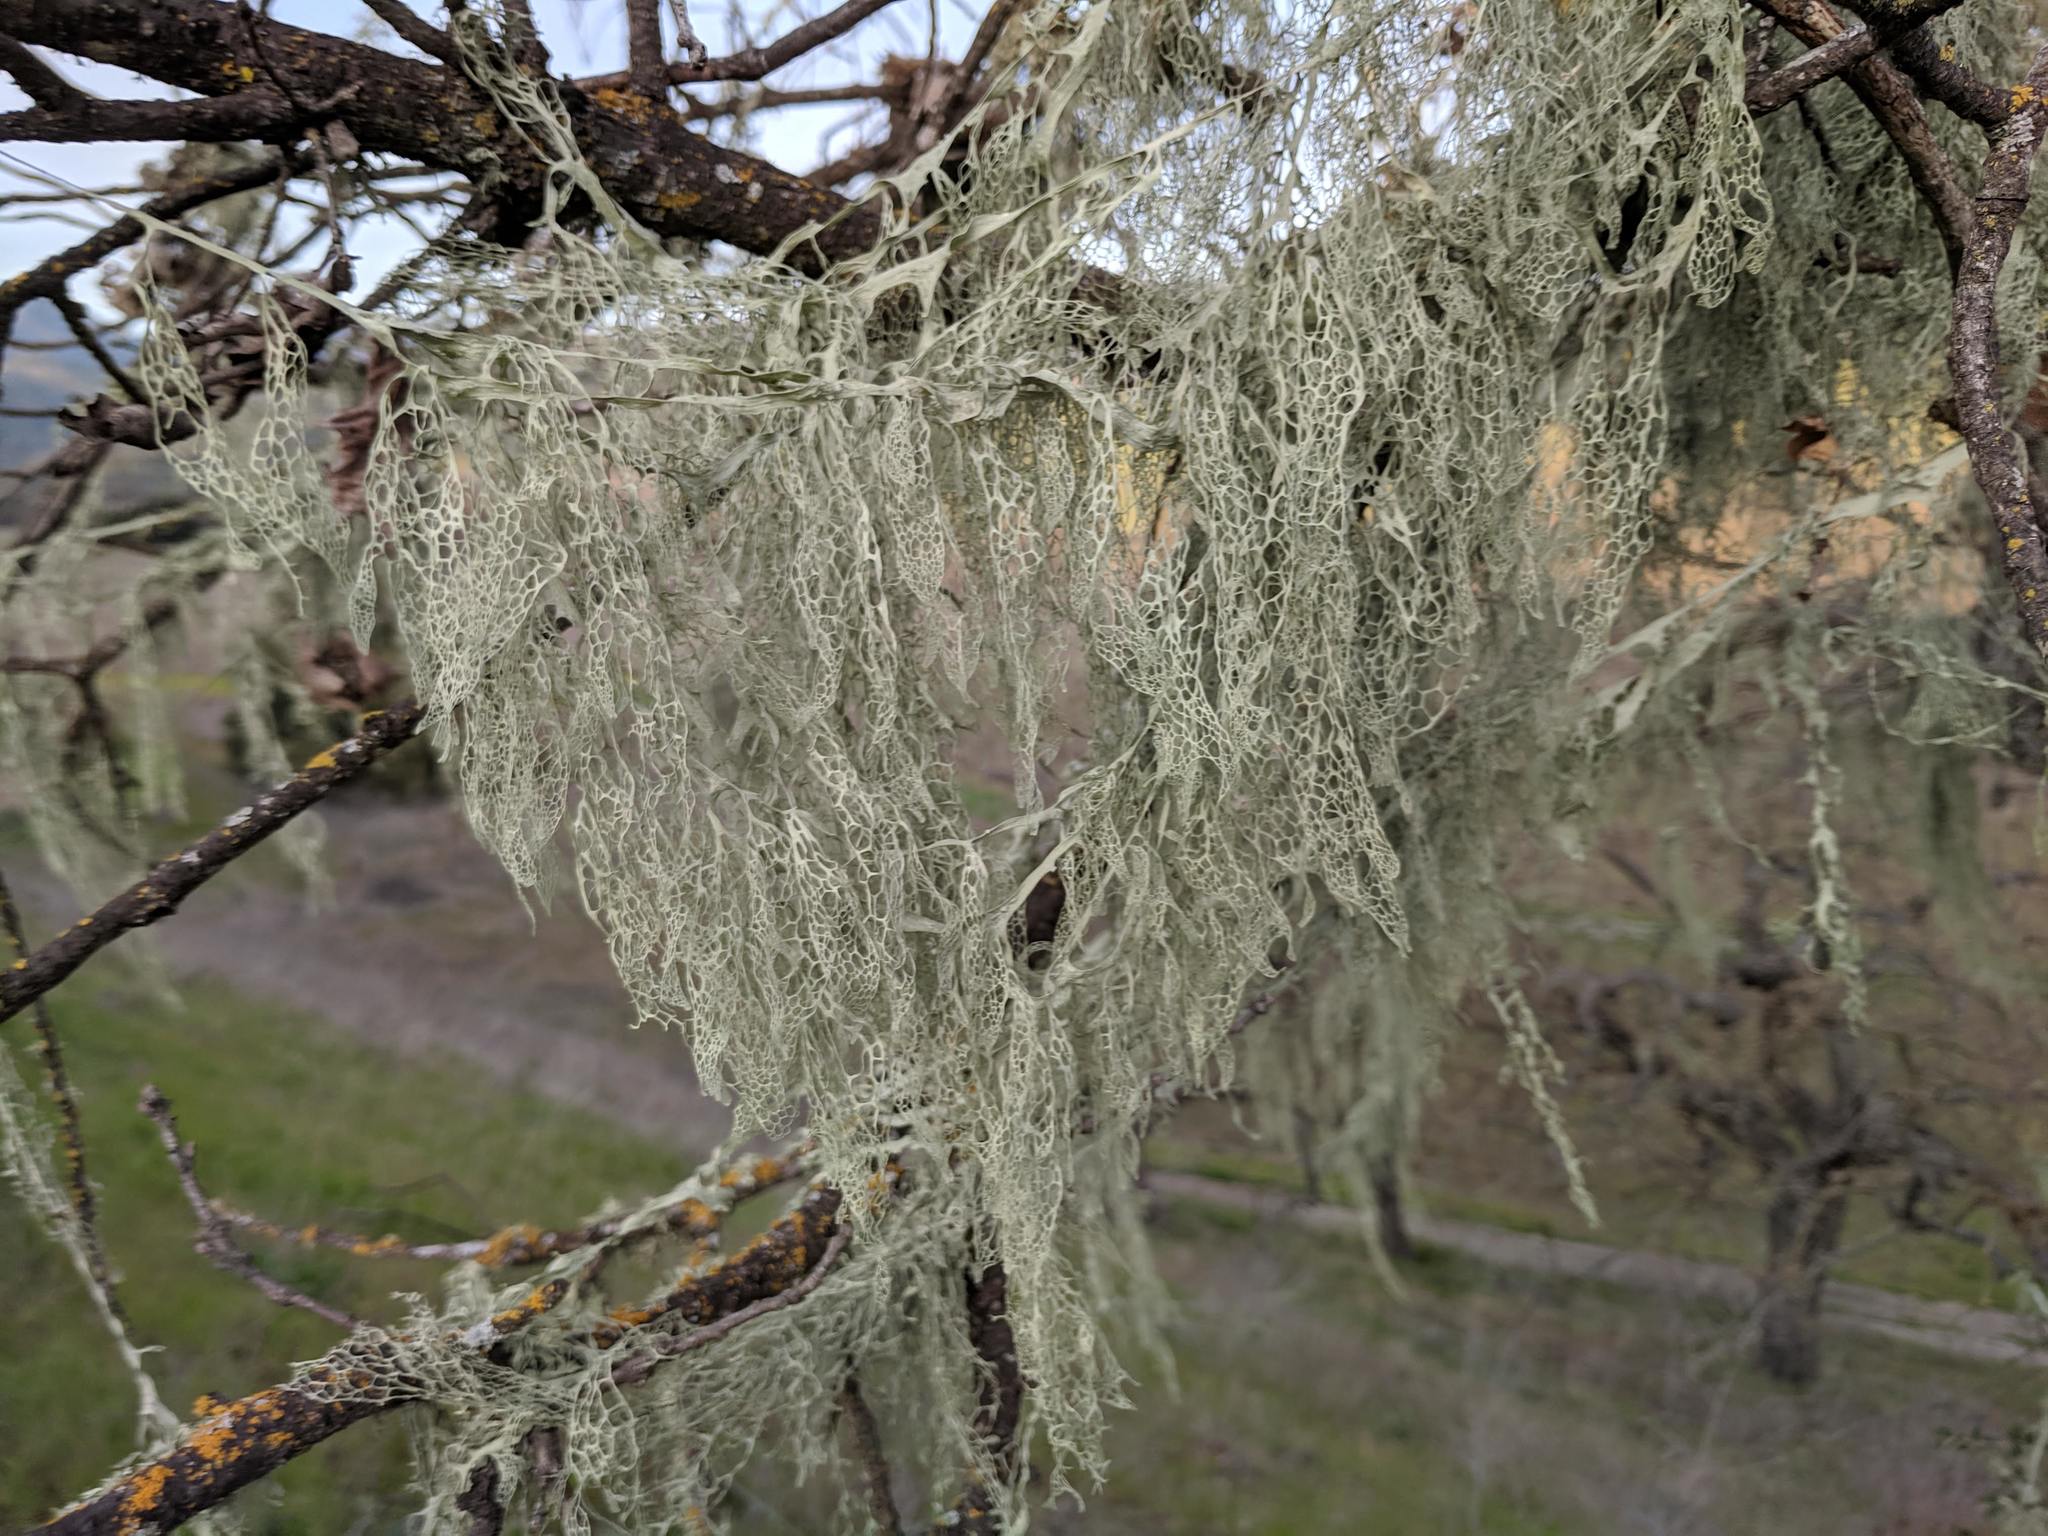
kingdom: Fungi
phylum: Ascomycota
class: Lecanoromycetes
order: Lecanorales
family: Ramalinaceae
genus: Ramalina
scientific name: Ramalina menziesii
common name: Lace lichen
